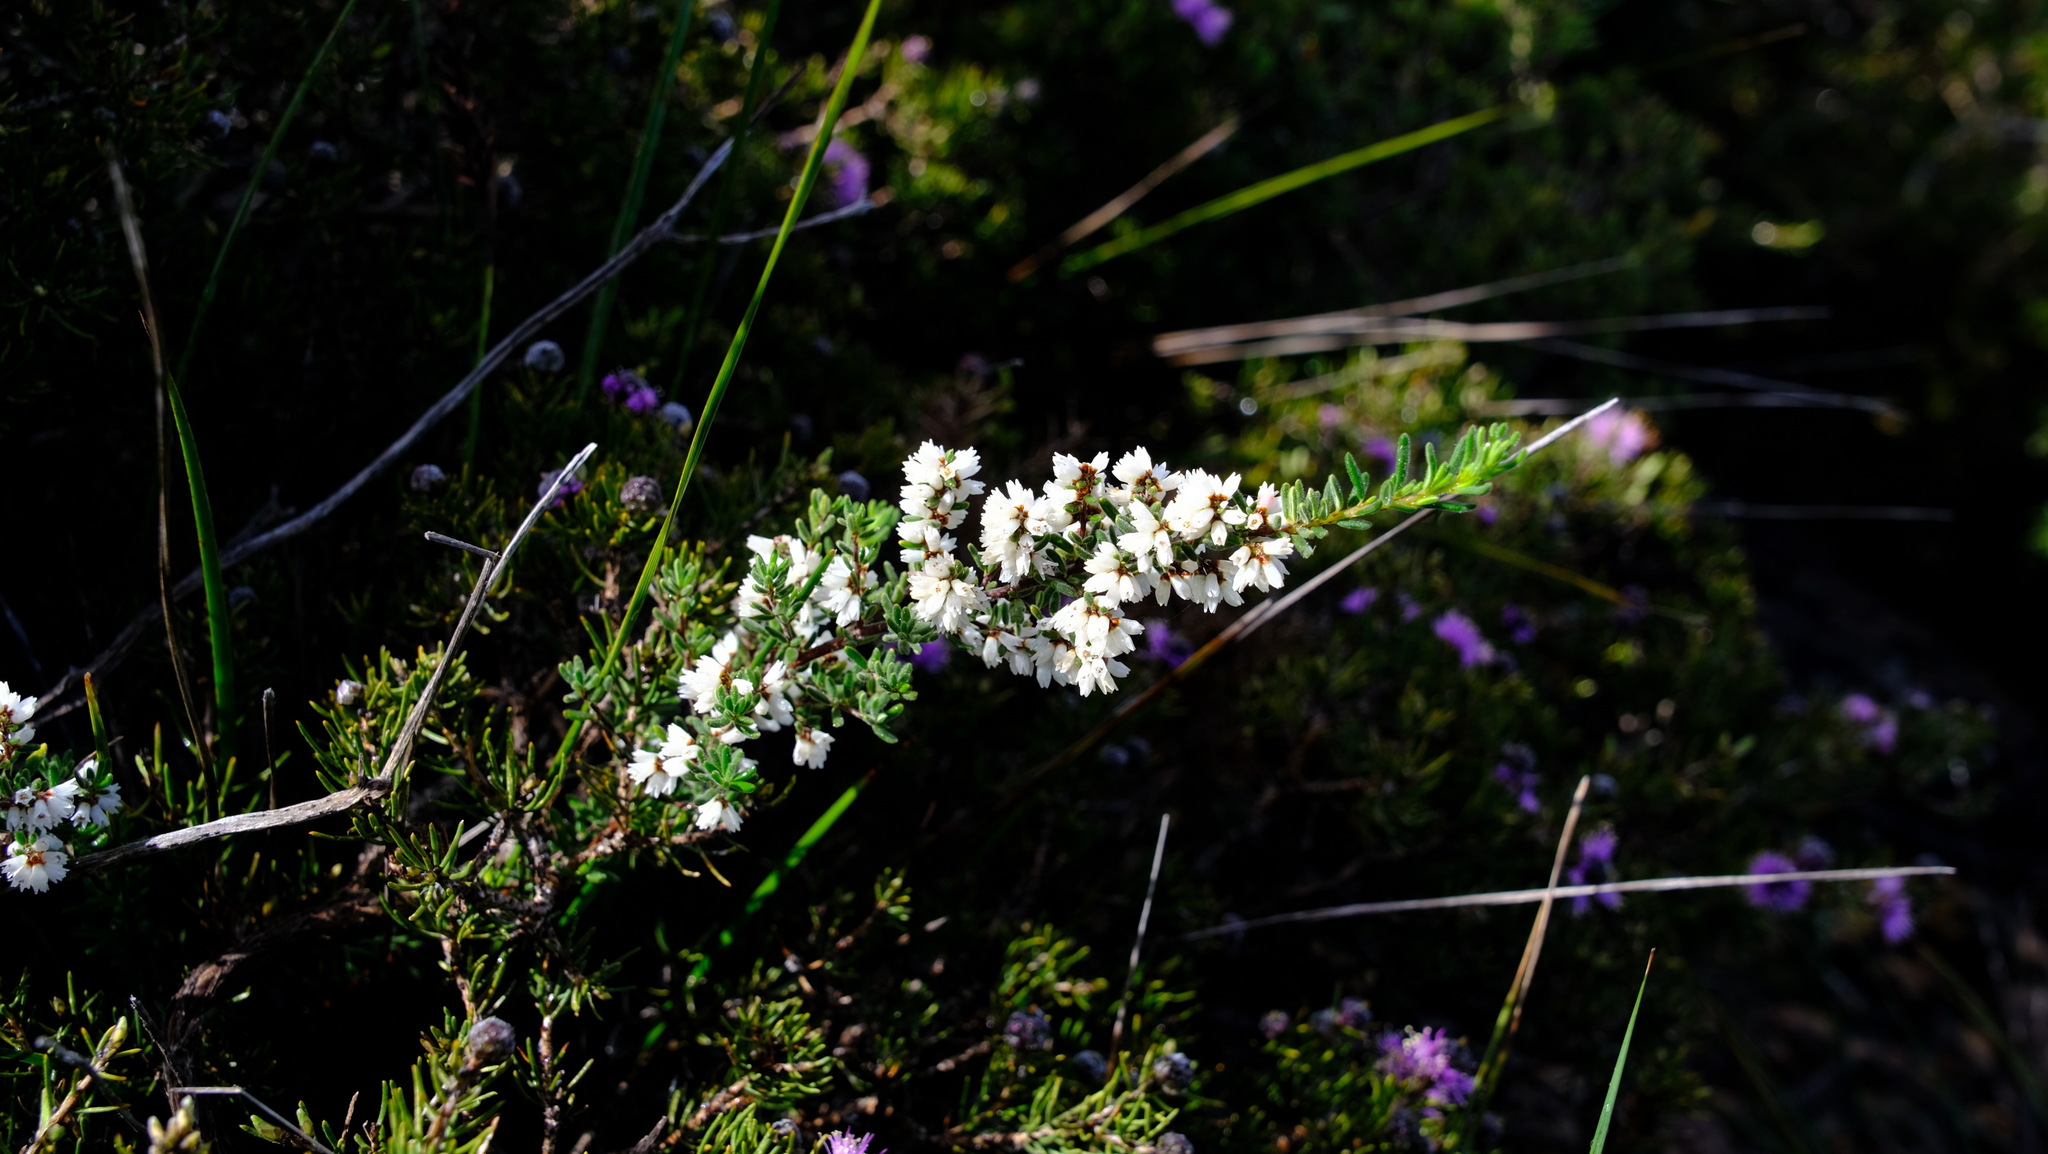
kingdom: Plantae
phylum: Tracheophyta
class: Magnoliopsida
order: Rosales
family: Rhamnaceae
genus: Cryptandra
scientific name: Cryptandra intermedia
